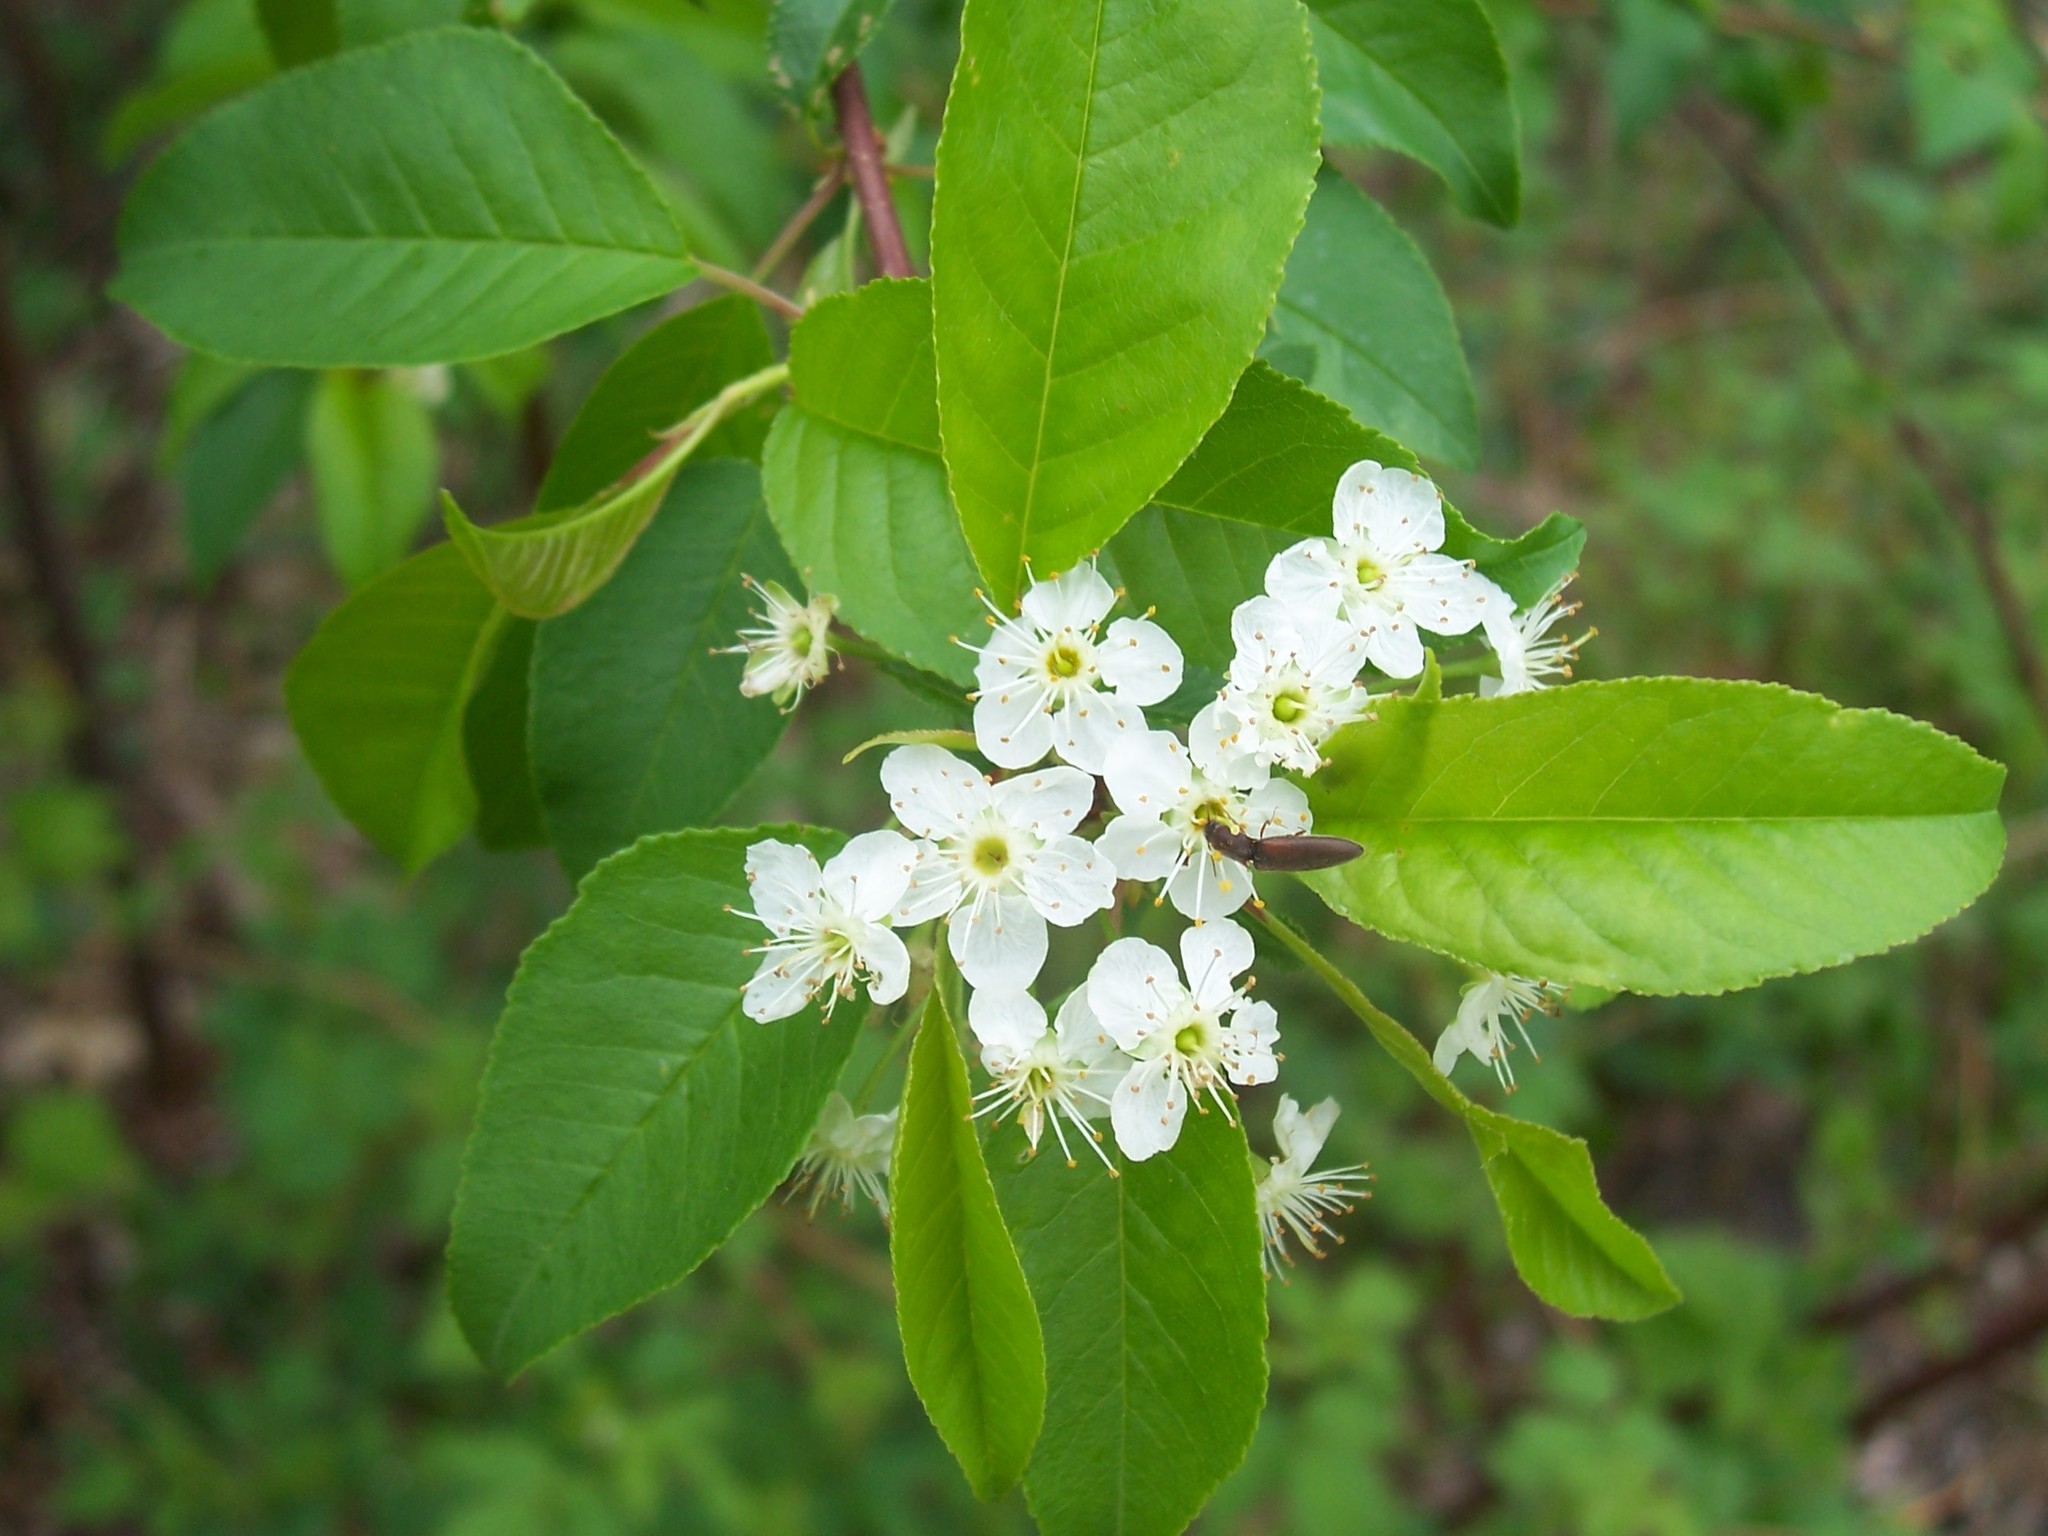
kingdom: Plantae
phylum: Tracheophyta
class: Magnoliopsida
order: Rosales
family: Rosaceae
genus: Prunus
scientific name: Prunus pensylvanica
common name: Pin cherry
